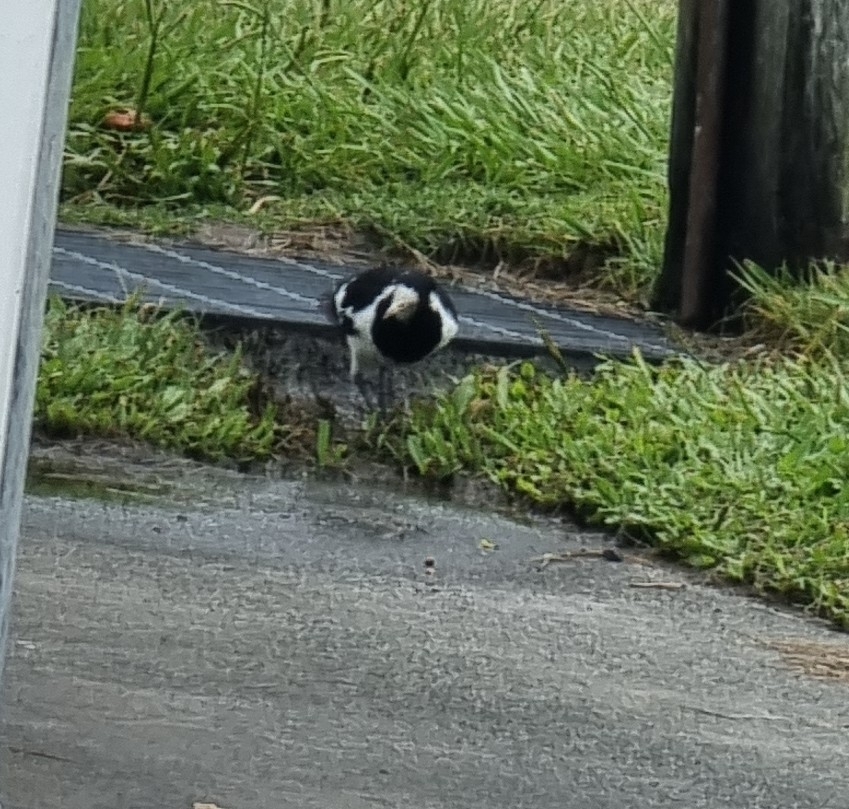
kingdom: Animalia
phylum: Chordata
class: Aves
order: Passeriformes
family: Monarchidae
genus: Grallina
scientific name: Grallina cyanoleuca
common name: Magpie-lark
